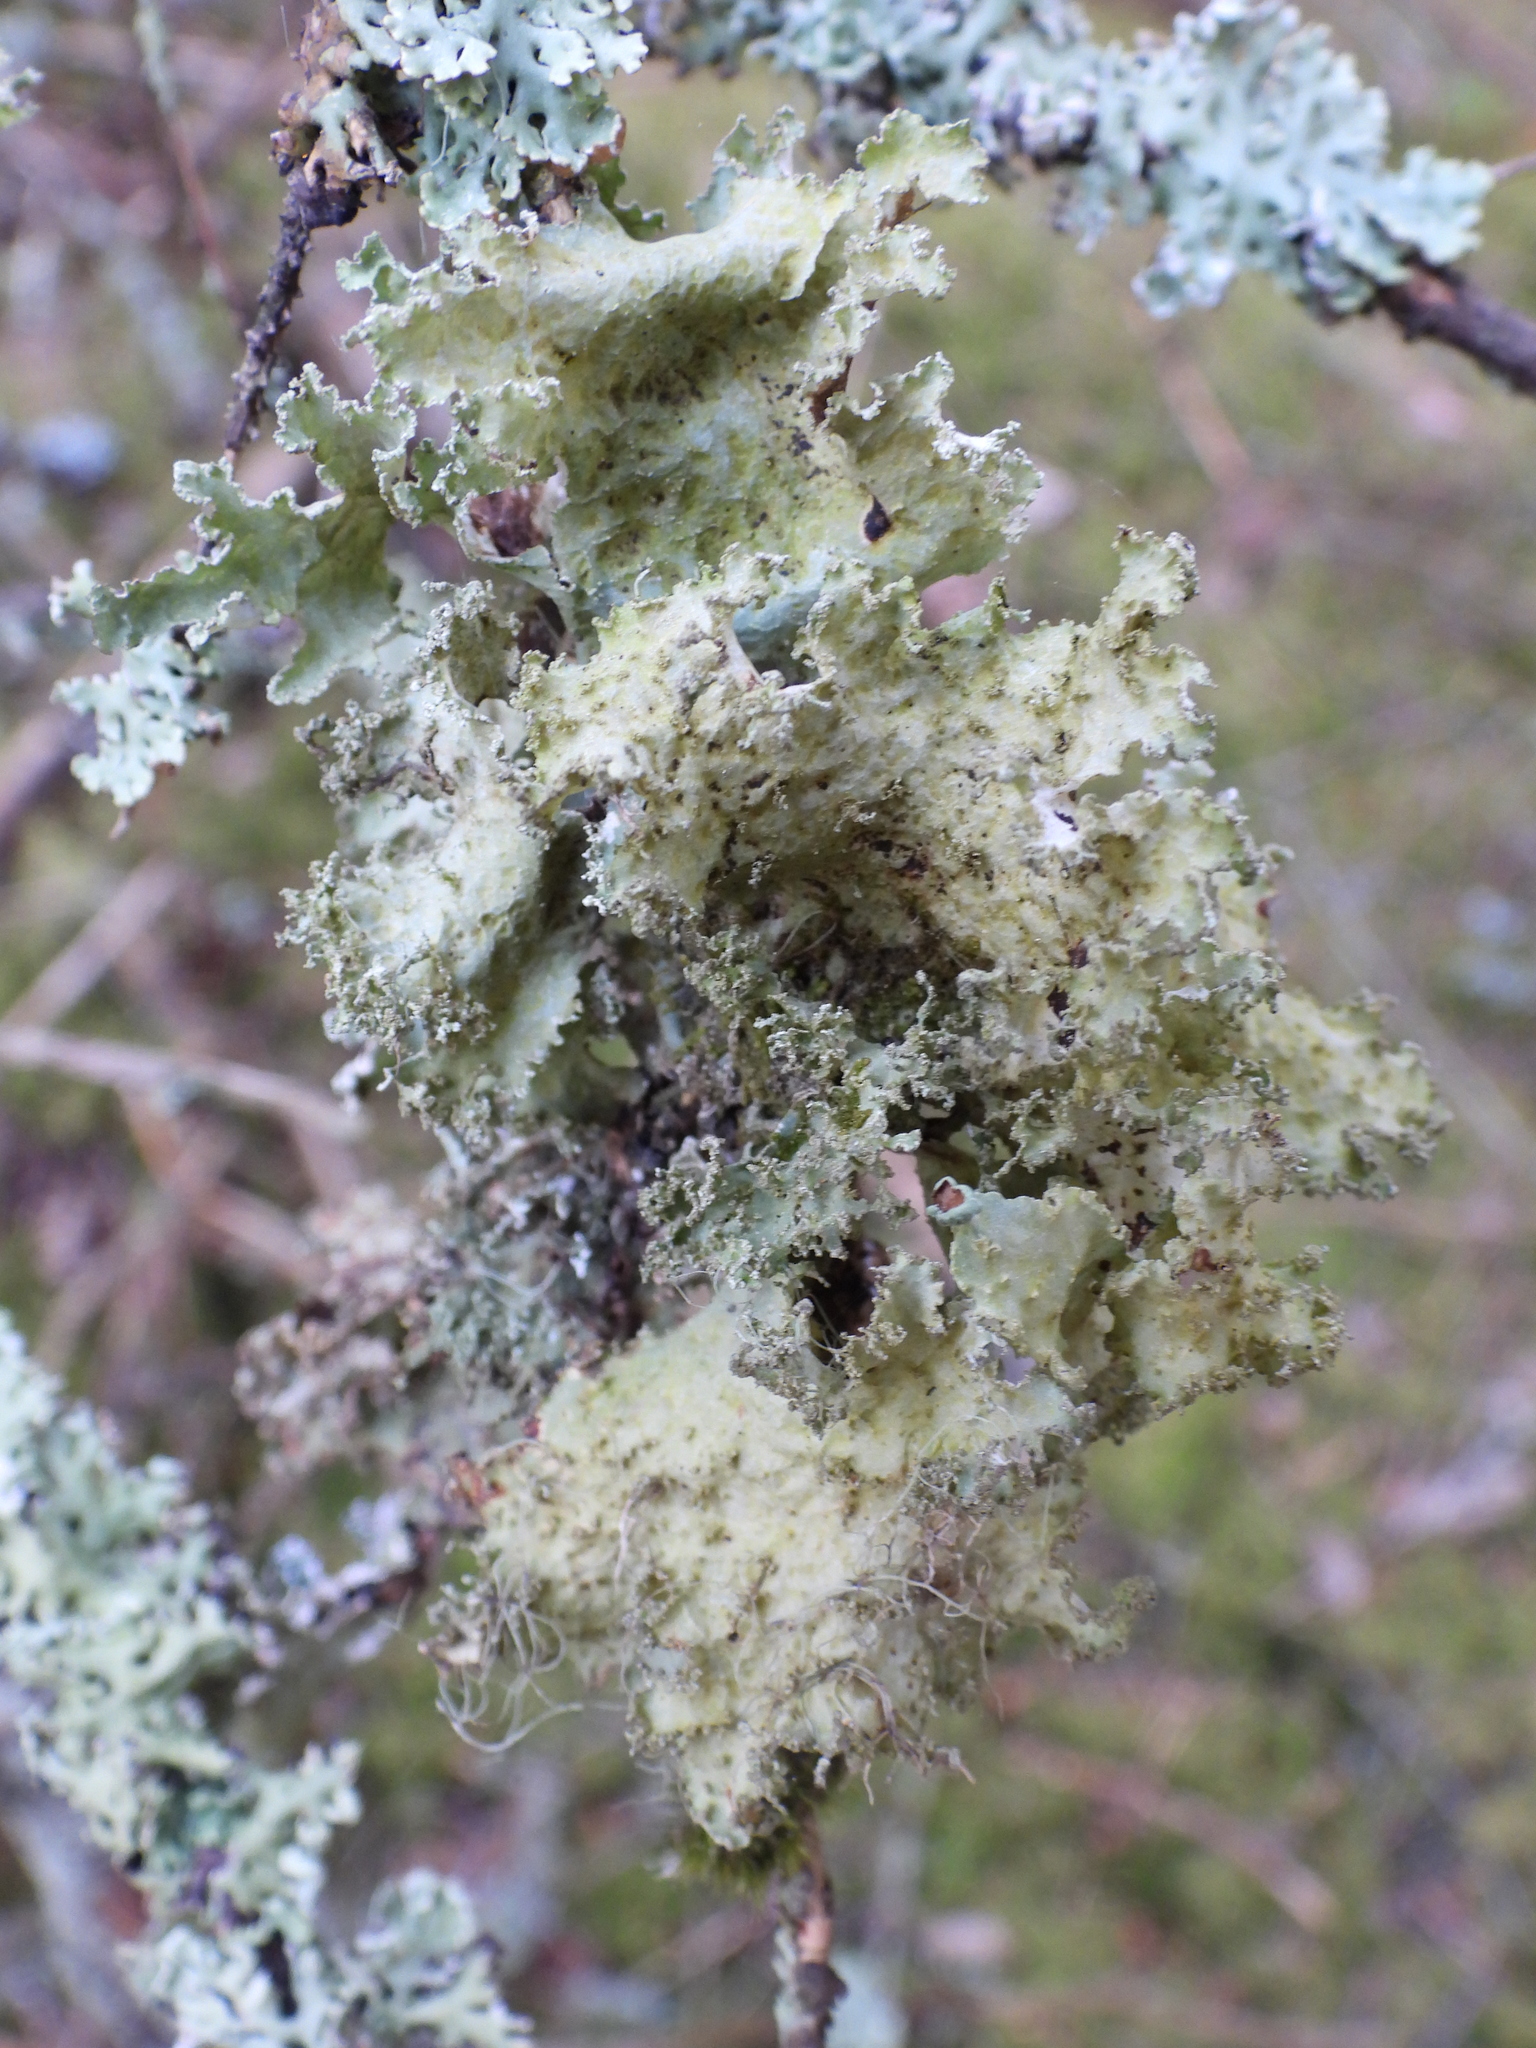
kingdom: Fungi
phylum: Ascomycota
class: Lecanoromycetes
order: Lecanorales
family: Parmeliaceae
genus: Platismatia
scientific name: Platismatia glauca
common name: Varied rag lichen
